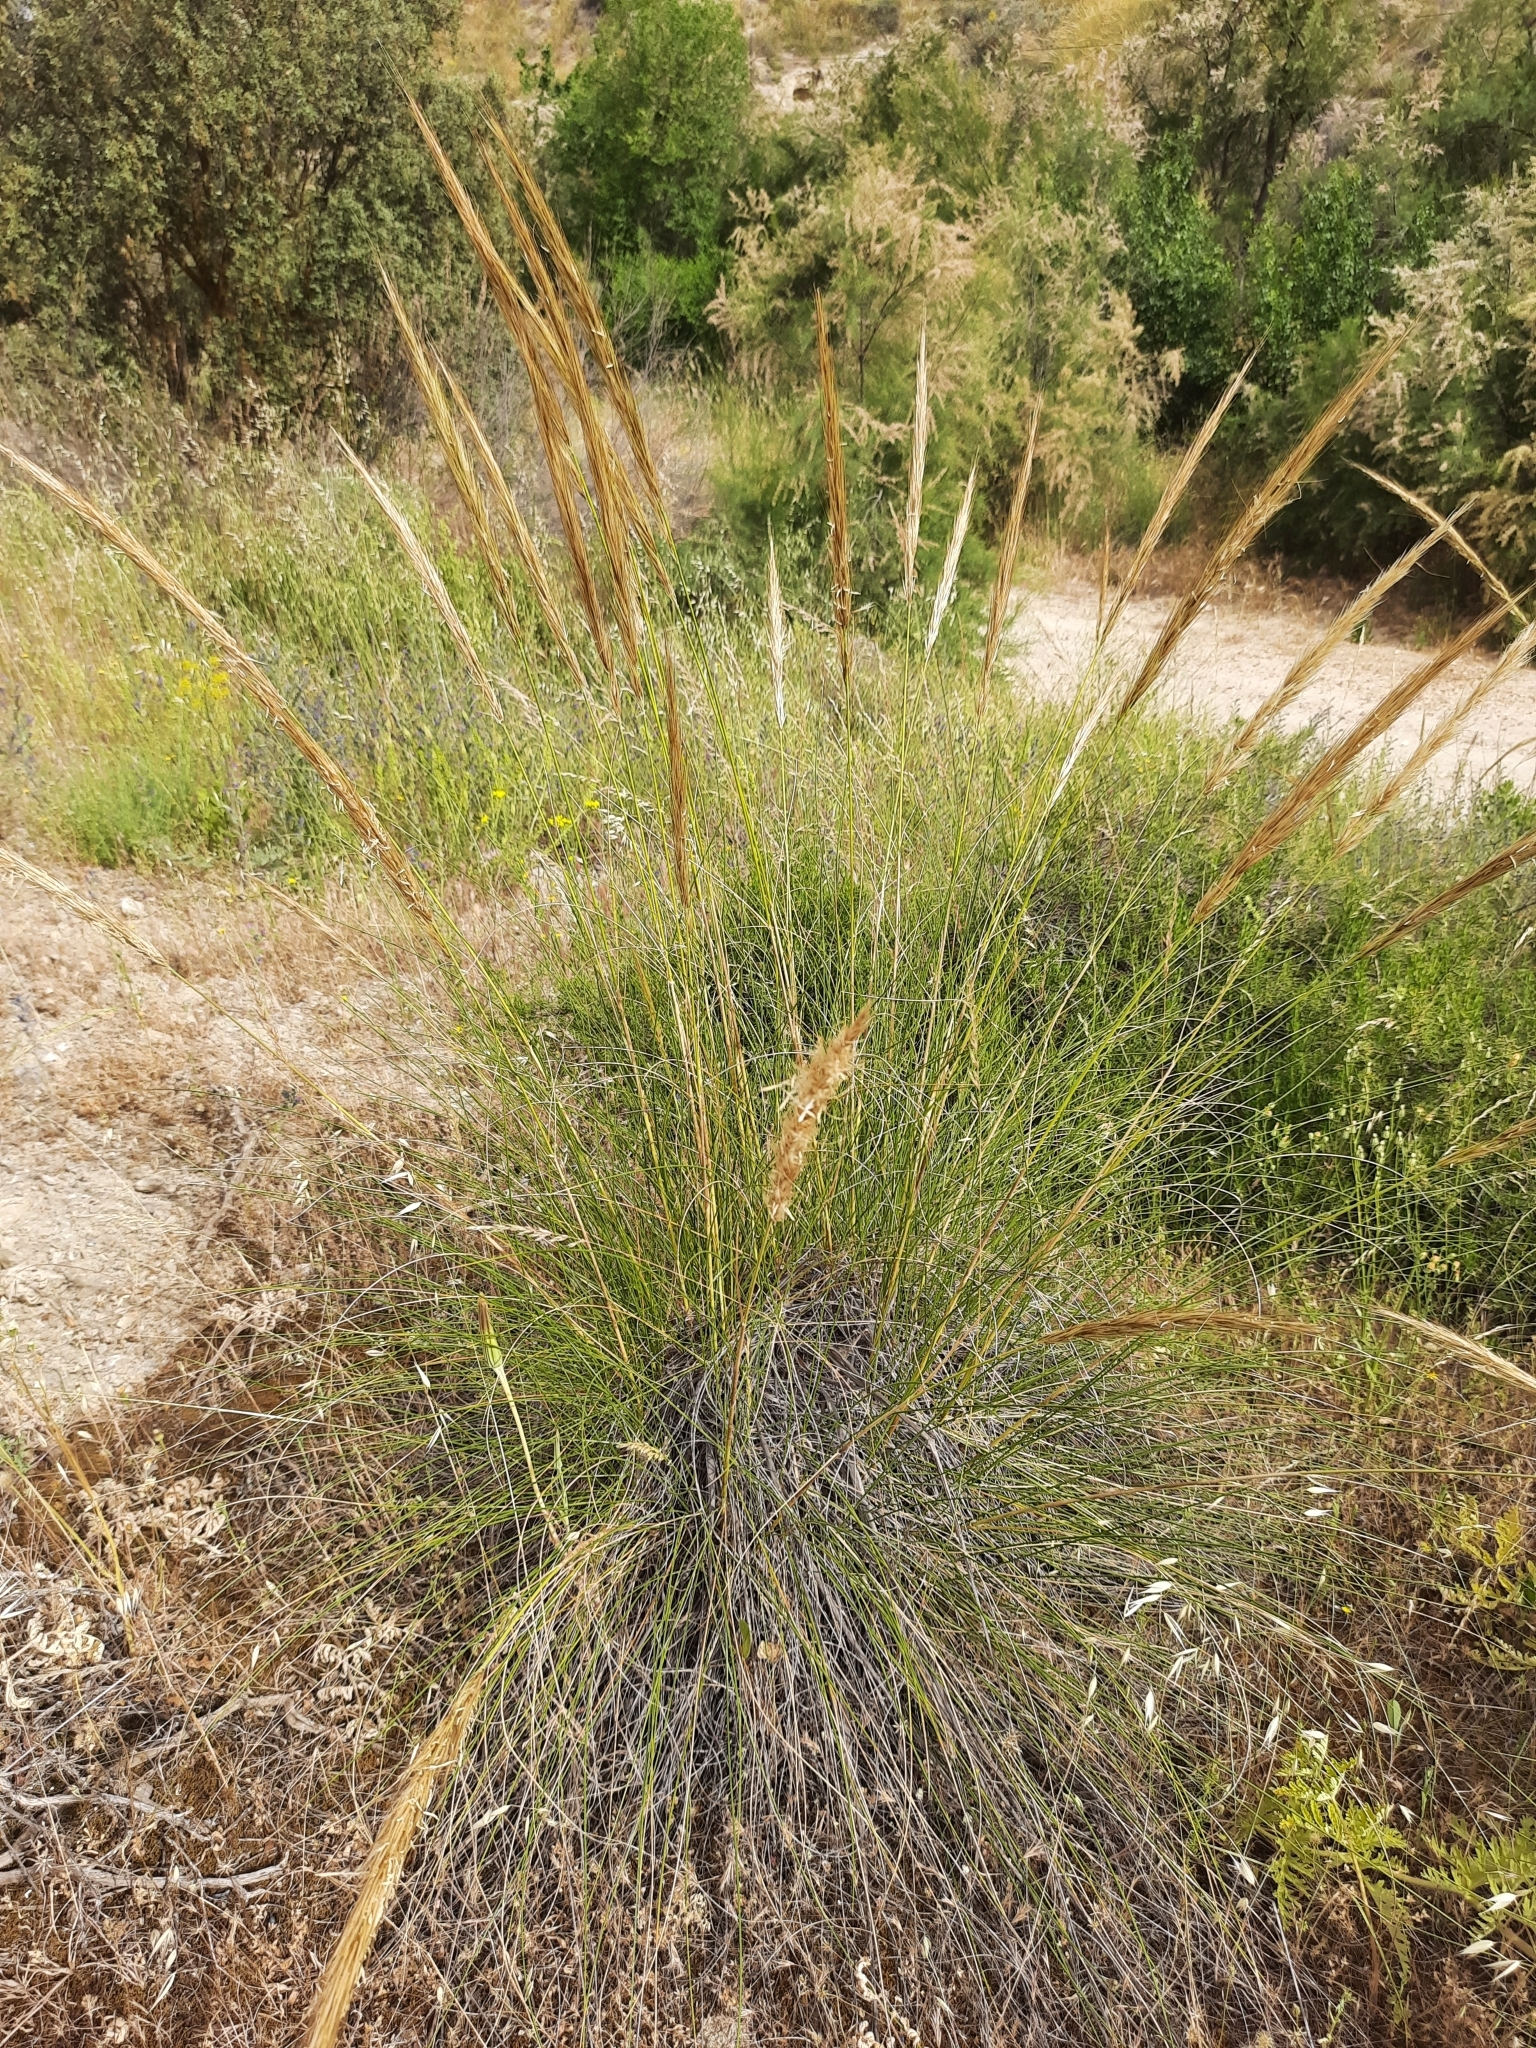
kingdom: Plantae
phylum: Tracheophyta
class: Liliopsida
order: Poales
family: Poaceae
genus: Macrochloa
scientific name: Macrochloa tenacissima
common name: Alfa grass
